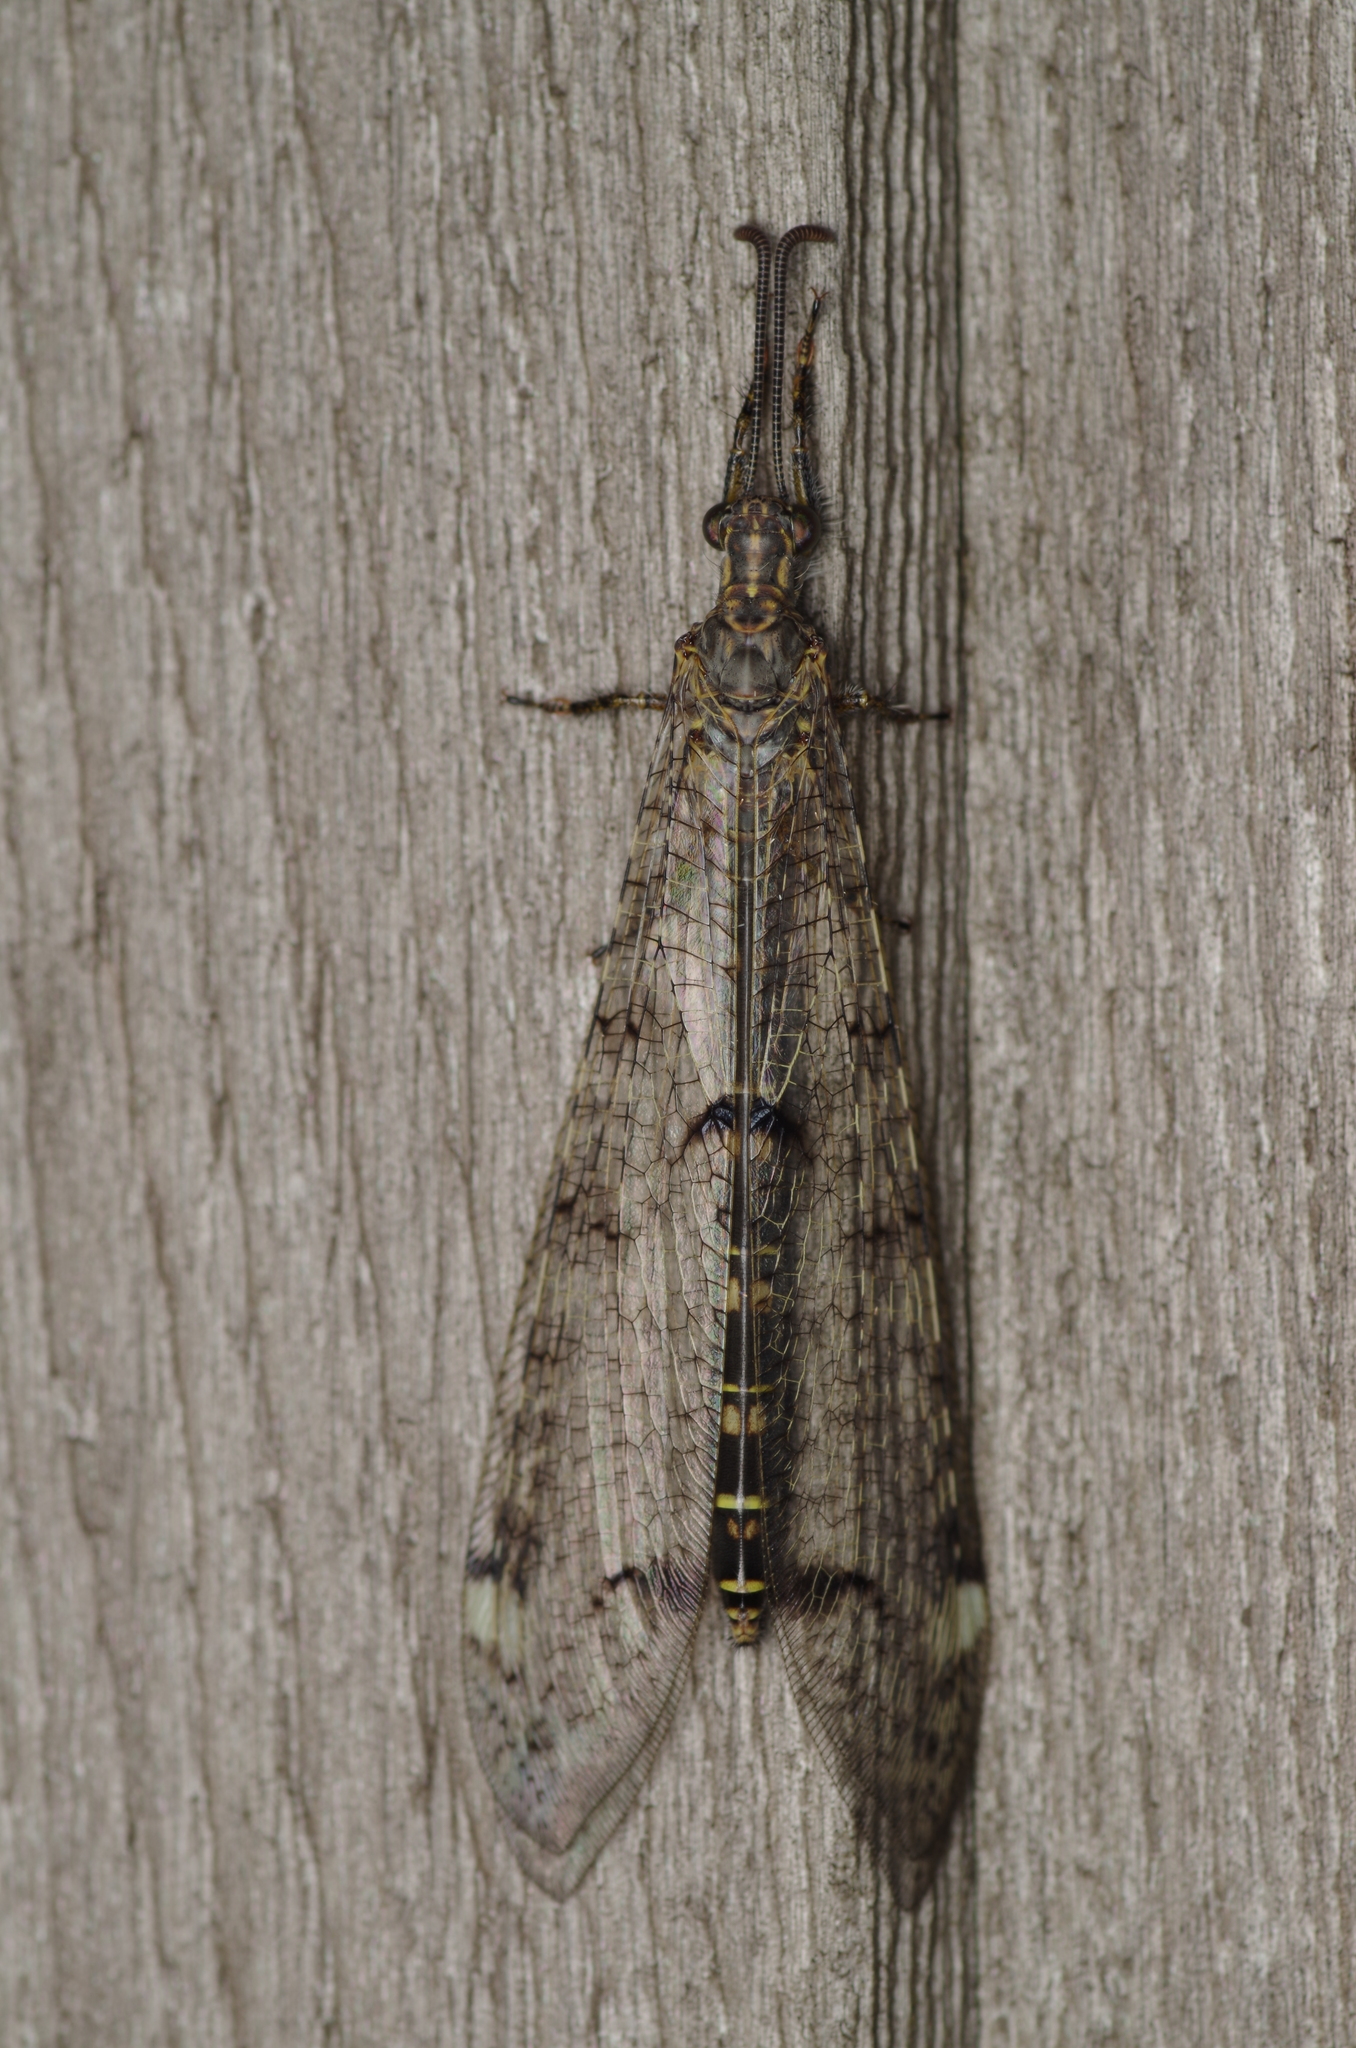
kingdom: Animalia
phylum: Arthropoda
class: Insecta
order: Neuroptera
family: Myrmeleontidae
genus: Distoleon
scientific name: Distoleon tetragrammicus
